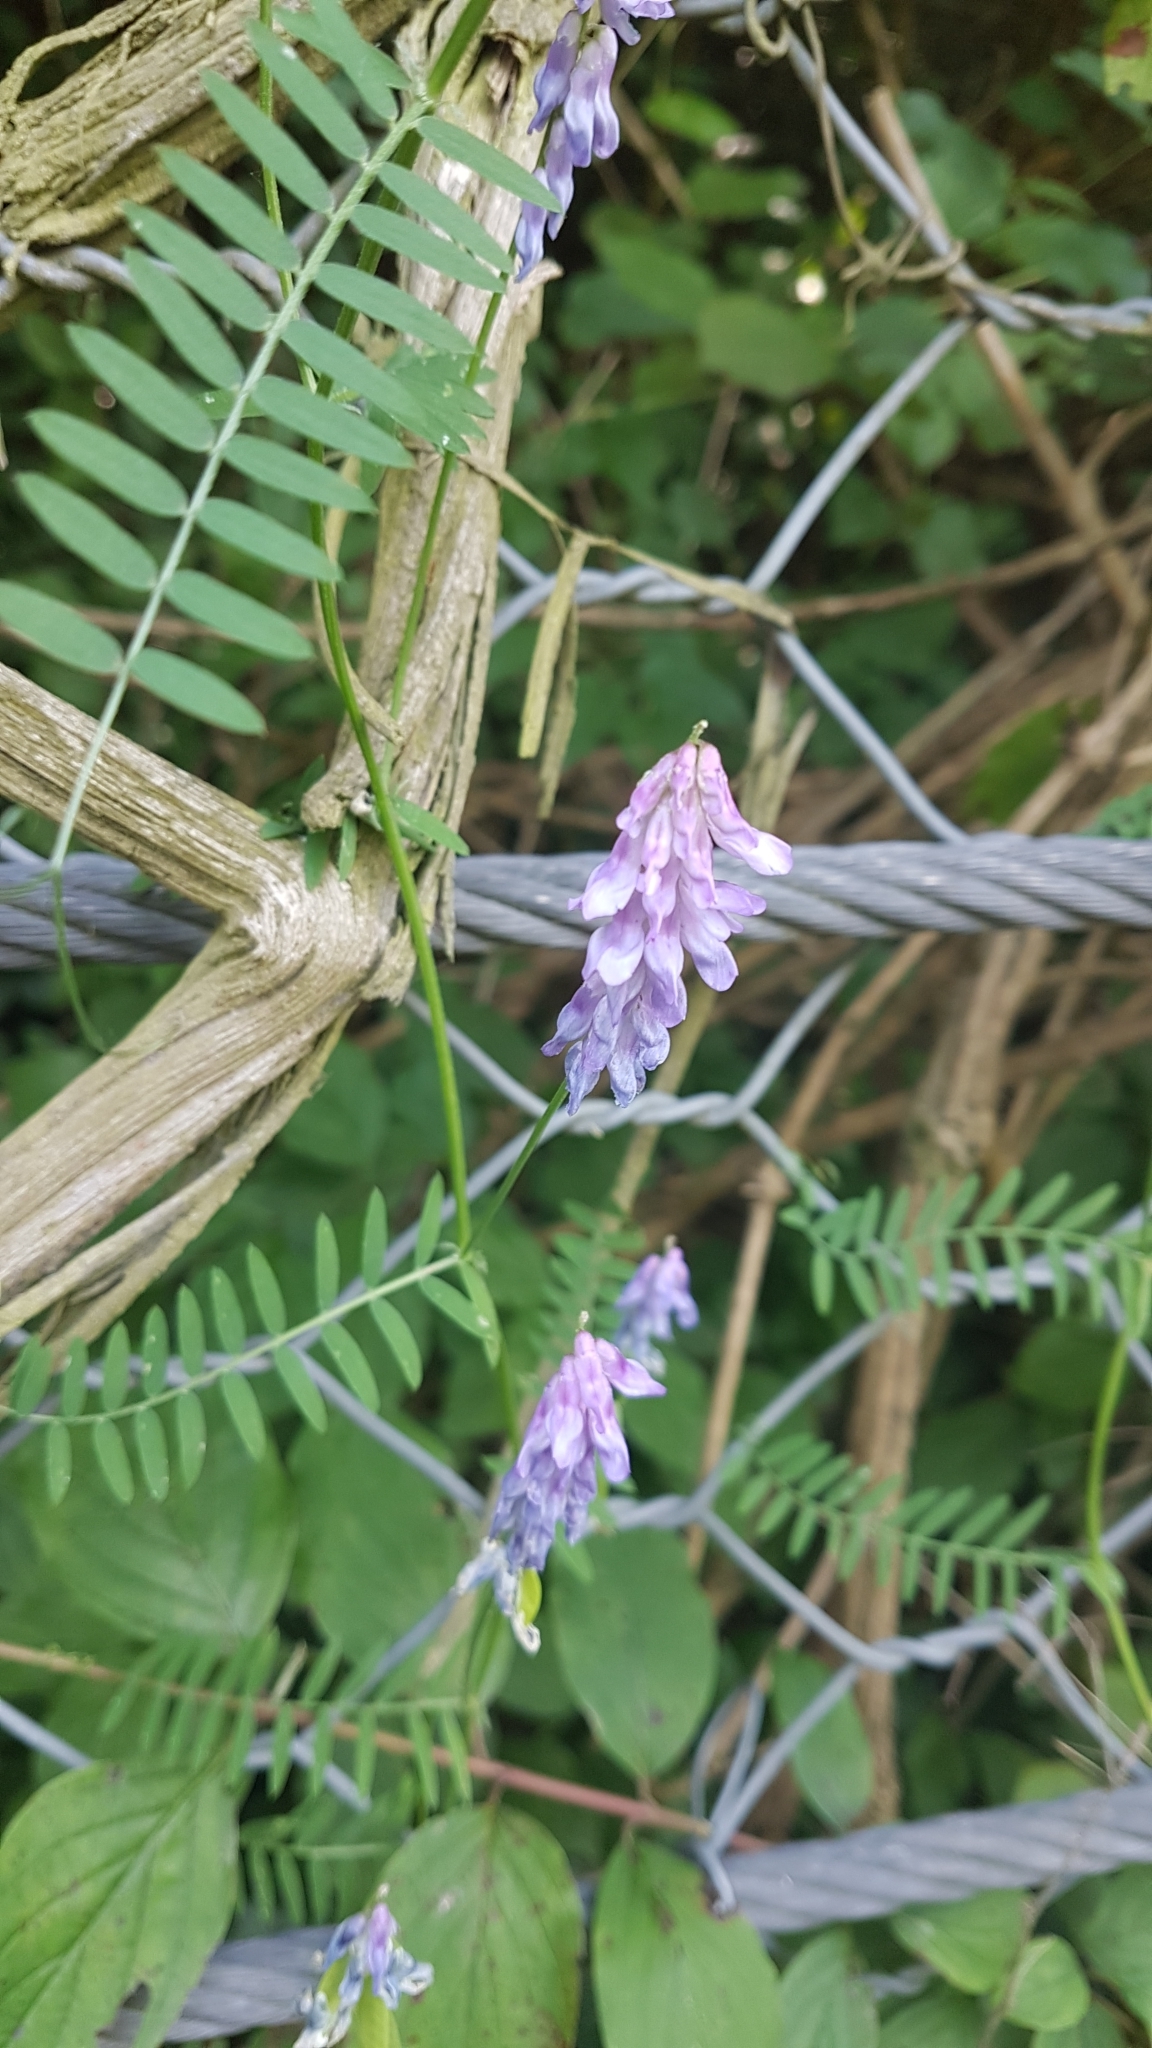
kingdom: Plantae
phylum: Tracheophyta
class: Magnoliopsida
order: Fabales
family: Fabaceae
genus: Vicia
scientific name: Vicia cracca
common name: Bird vetch
